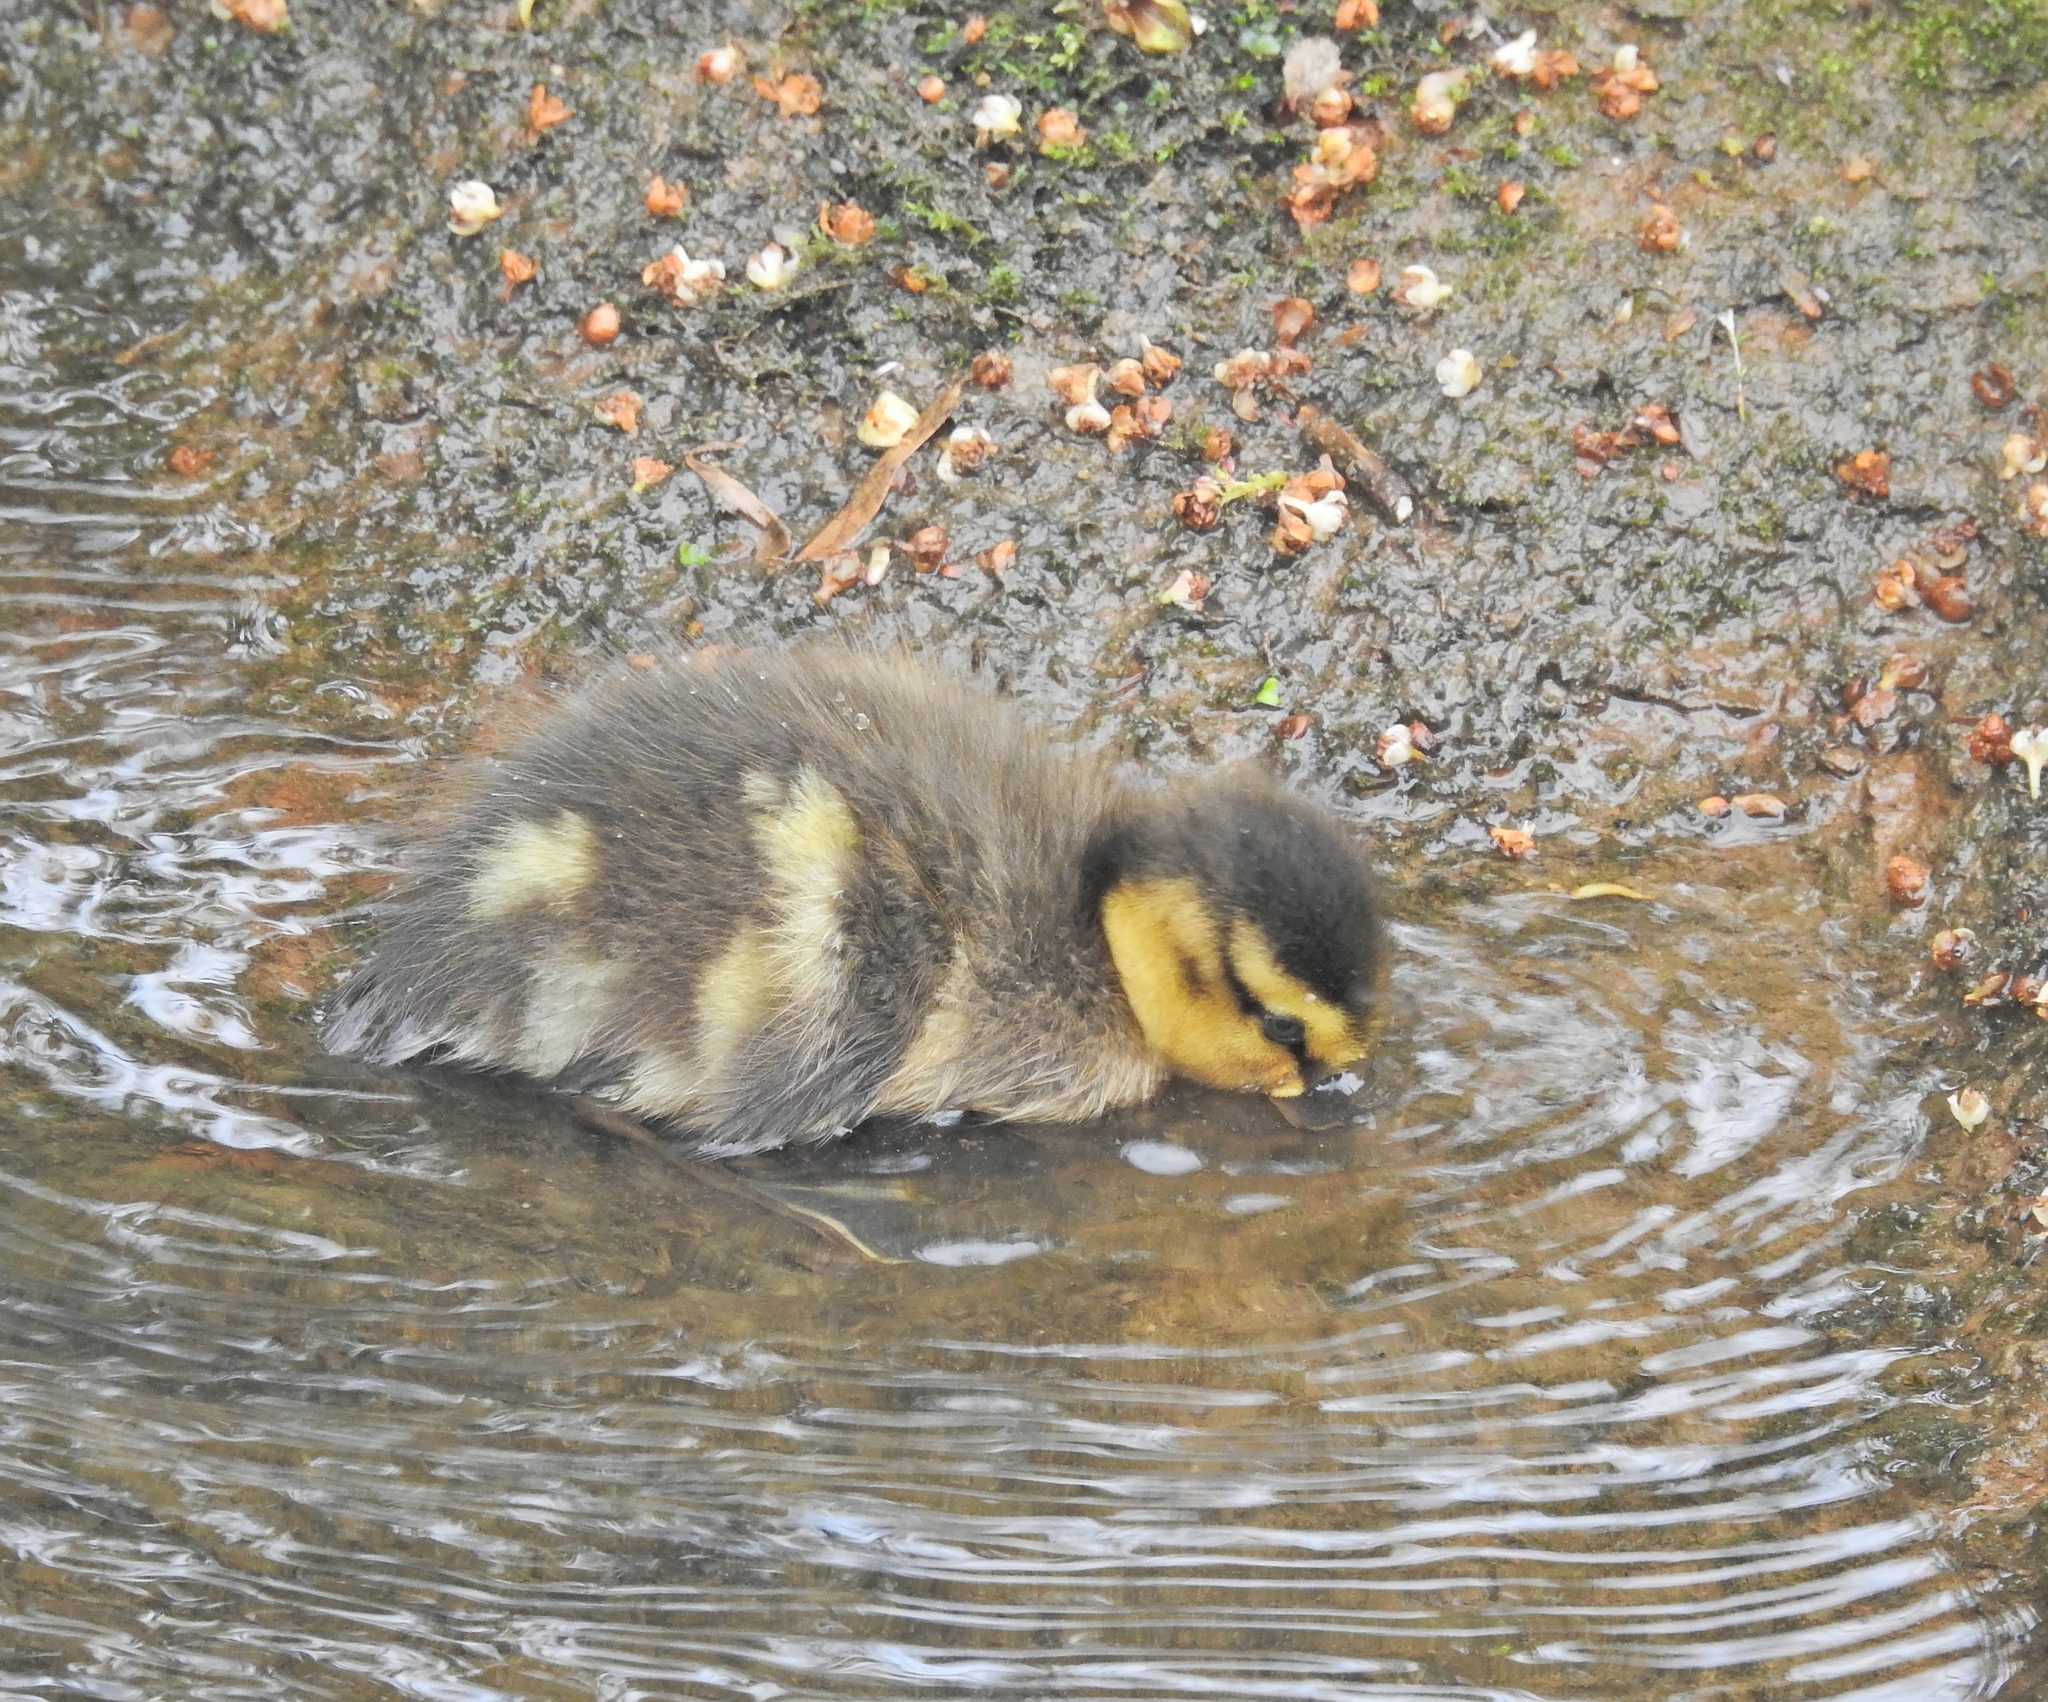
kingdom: Animalia
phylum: Chordata
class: Aves
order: Anseriformes
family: Anatidae
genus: Anas
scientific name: Anas platyrhynchos
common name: Mallard
